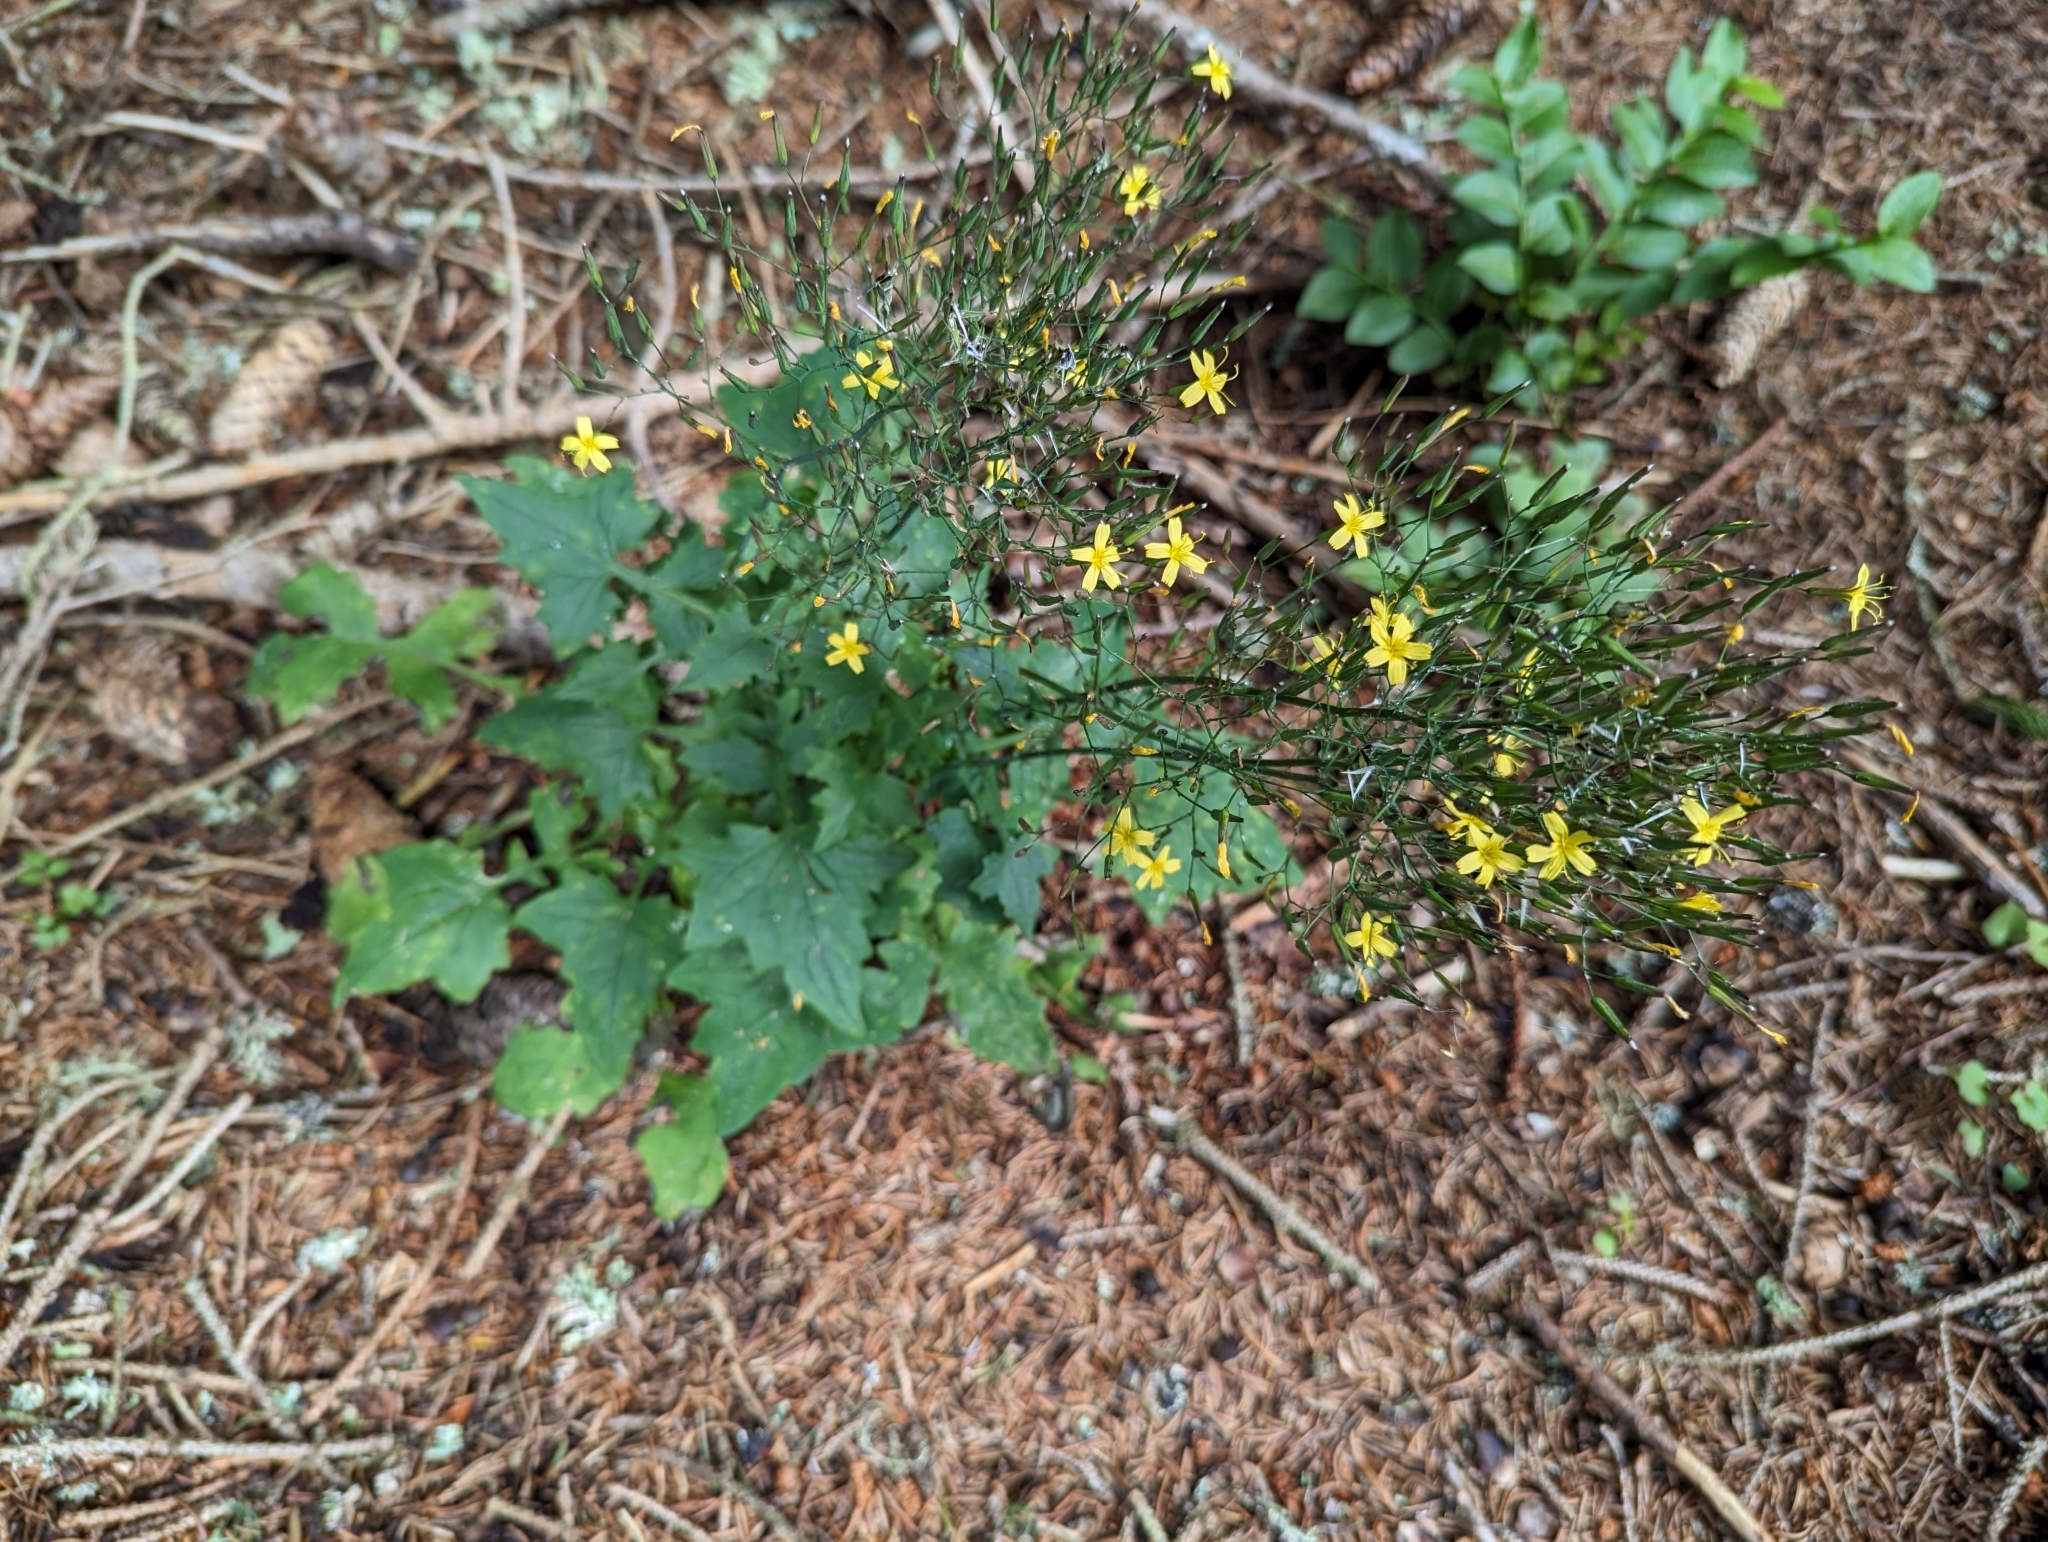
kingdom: Plantae
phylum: Tracheophyta
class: Magnoliopsida
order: Asterales
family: Asteraceae
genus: Mycelis
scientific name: Mycelis muralis
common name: Wall lettuce
